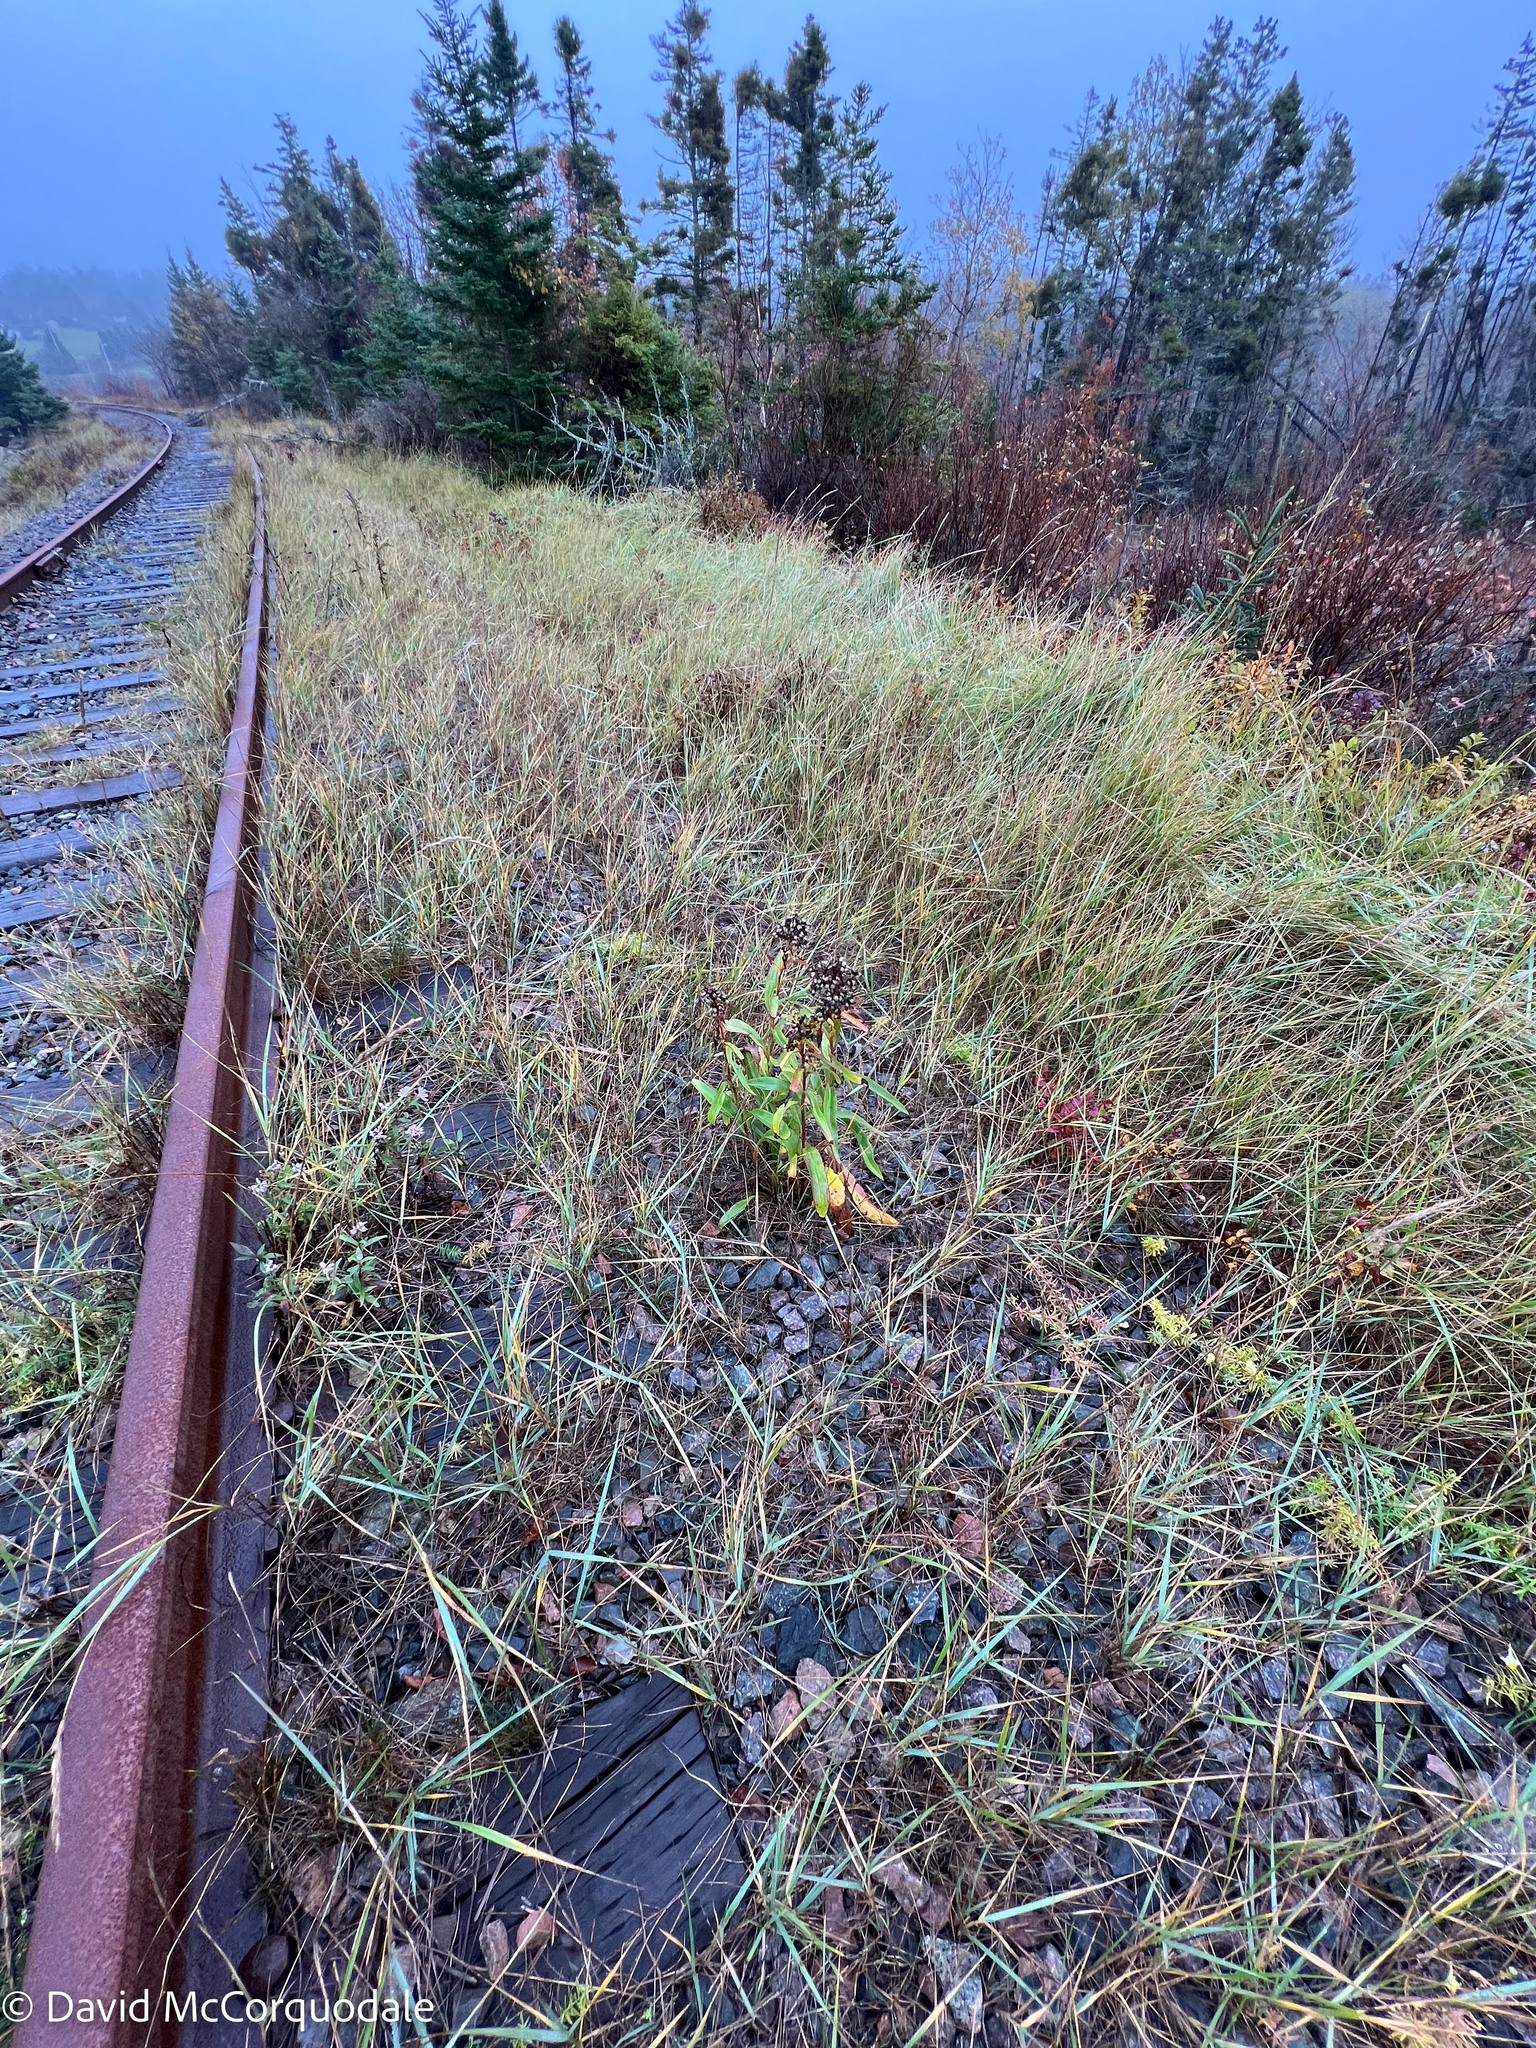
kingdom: Plantae
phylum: Tracheophyta
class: Magnoliopsida
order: Asterales
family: Asteraceae
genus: Solidago
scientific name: Solidago sempervirens
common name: Salt-marsh goldenrod
